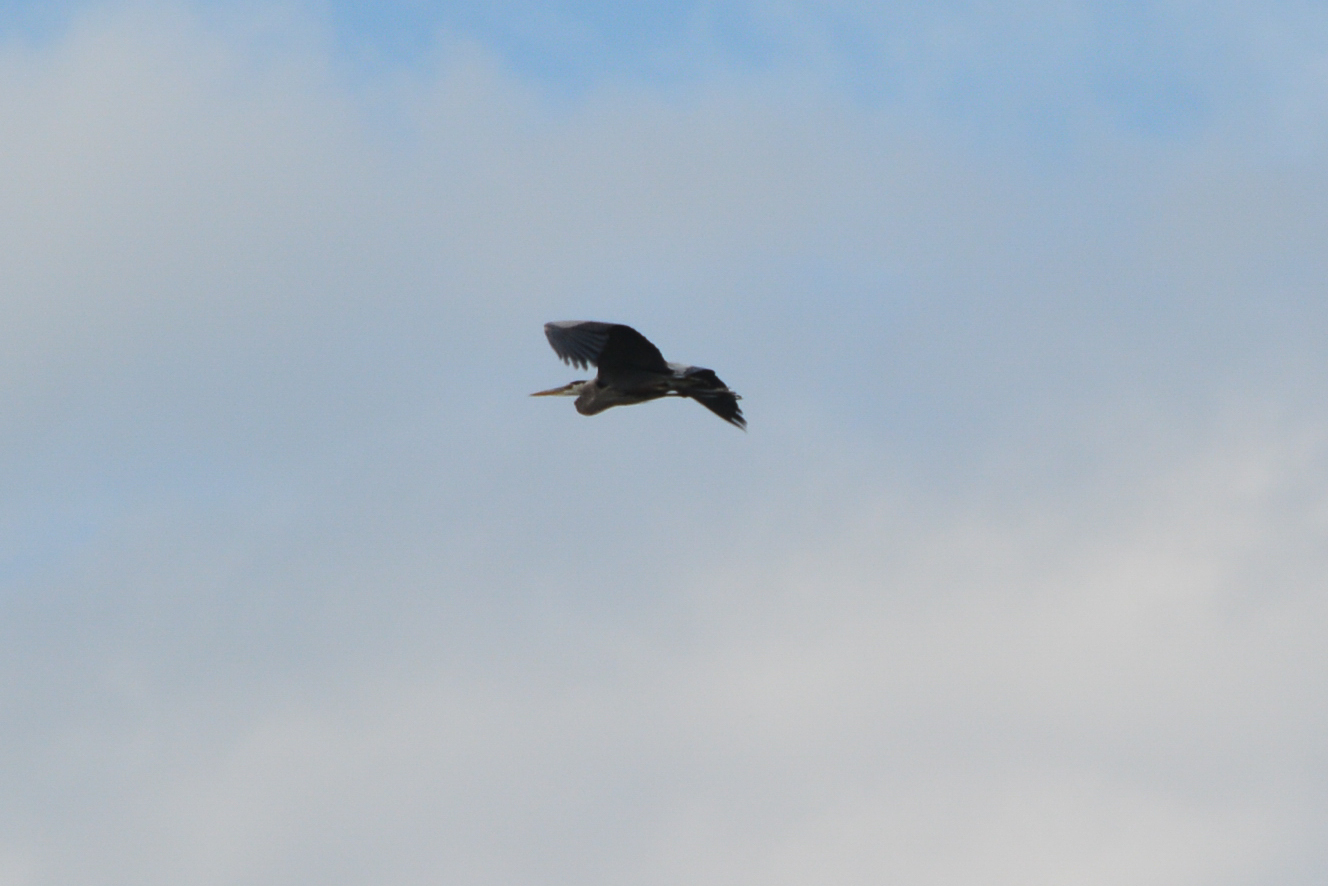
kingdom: Animalia
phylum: Chordata
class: Aves
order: Pelecaniformes
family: Ardeidae
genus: Ardea
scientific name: Ardea herodias
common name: Great blue heron
